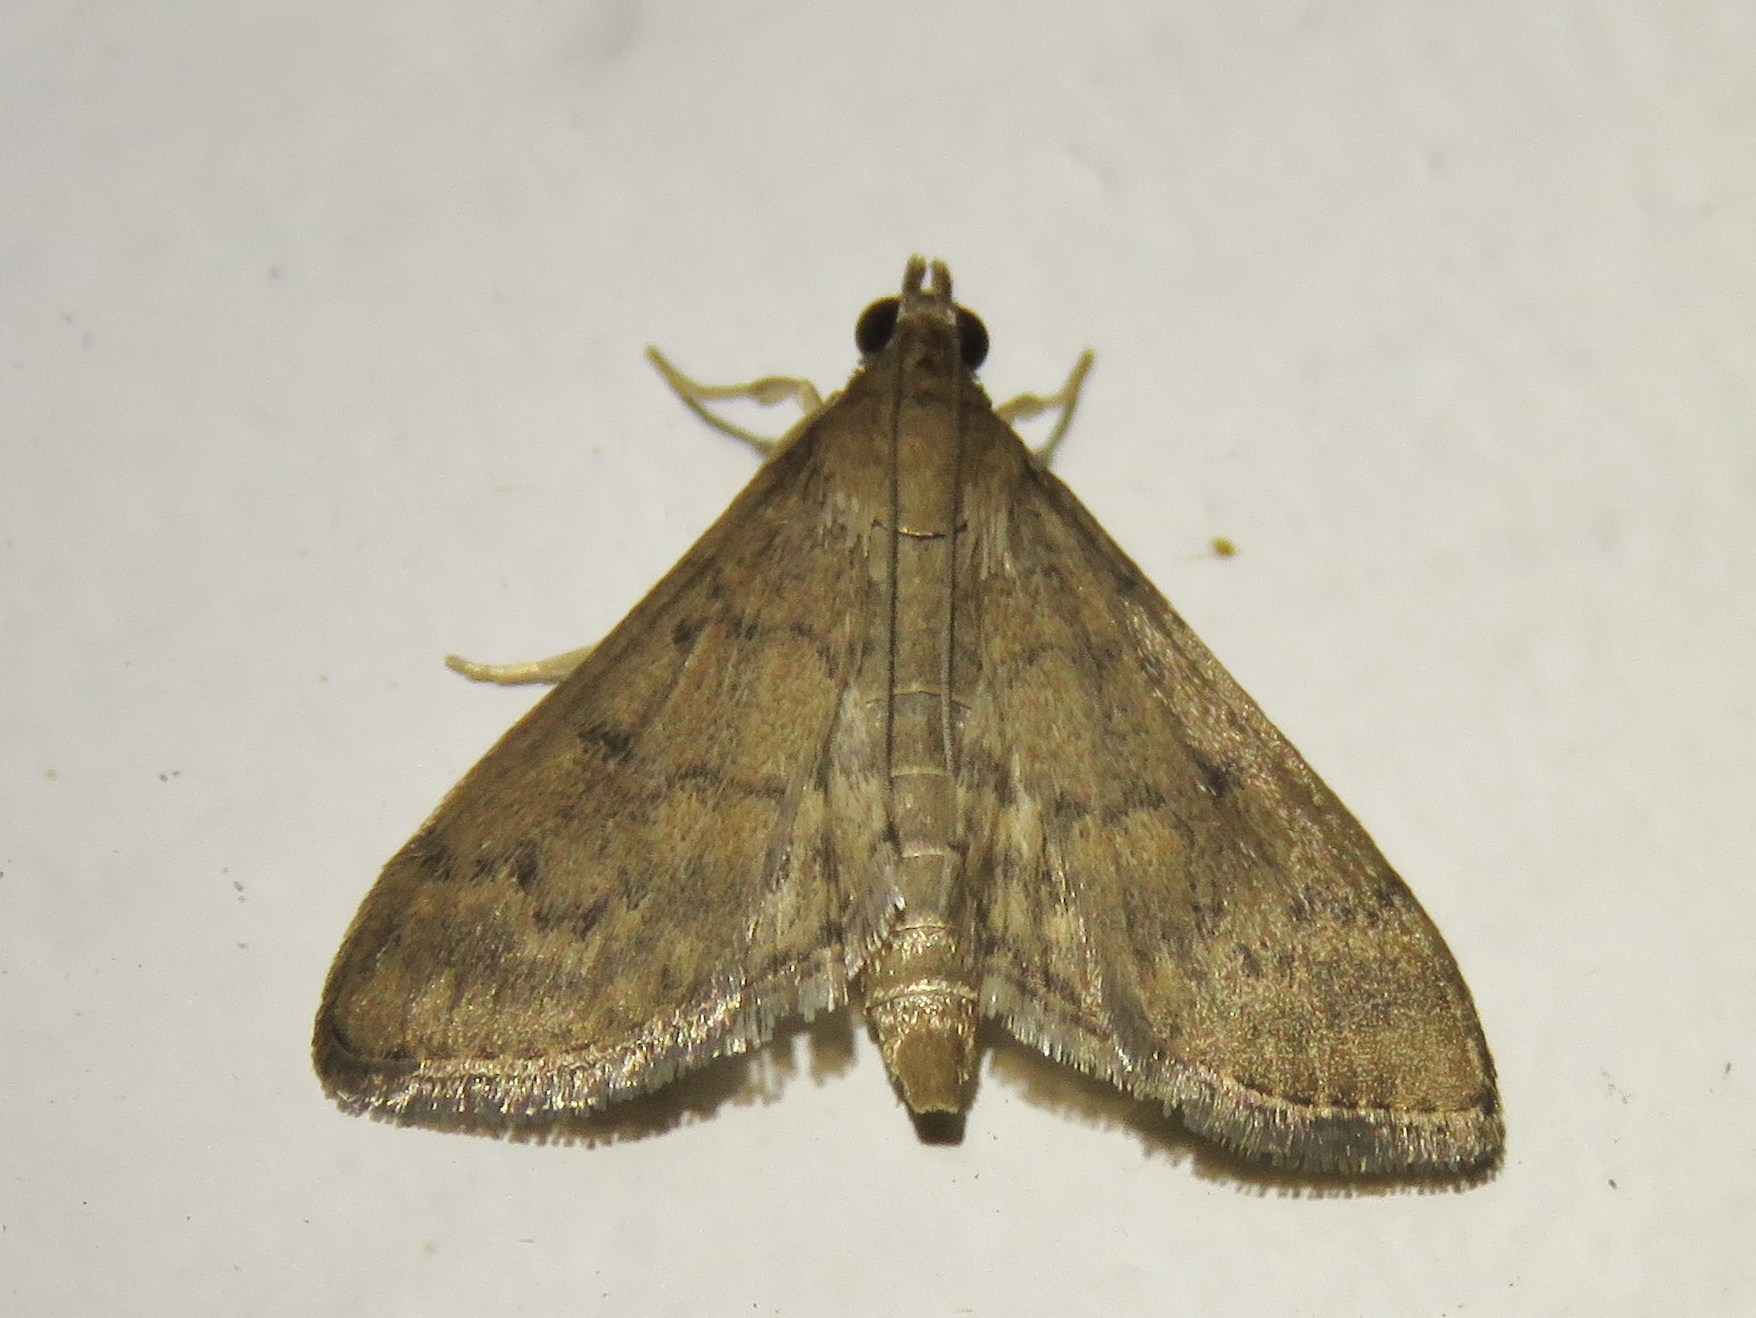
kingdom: Animalia
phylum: Arthropoda
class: Insecta
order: Lepidoptera
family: Crambidae
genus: Herpetogramma
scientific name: Herpetogramma phaeopteralis
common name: Dusky herpetogramma moth
